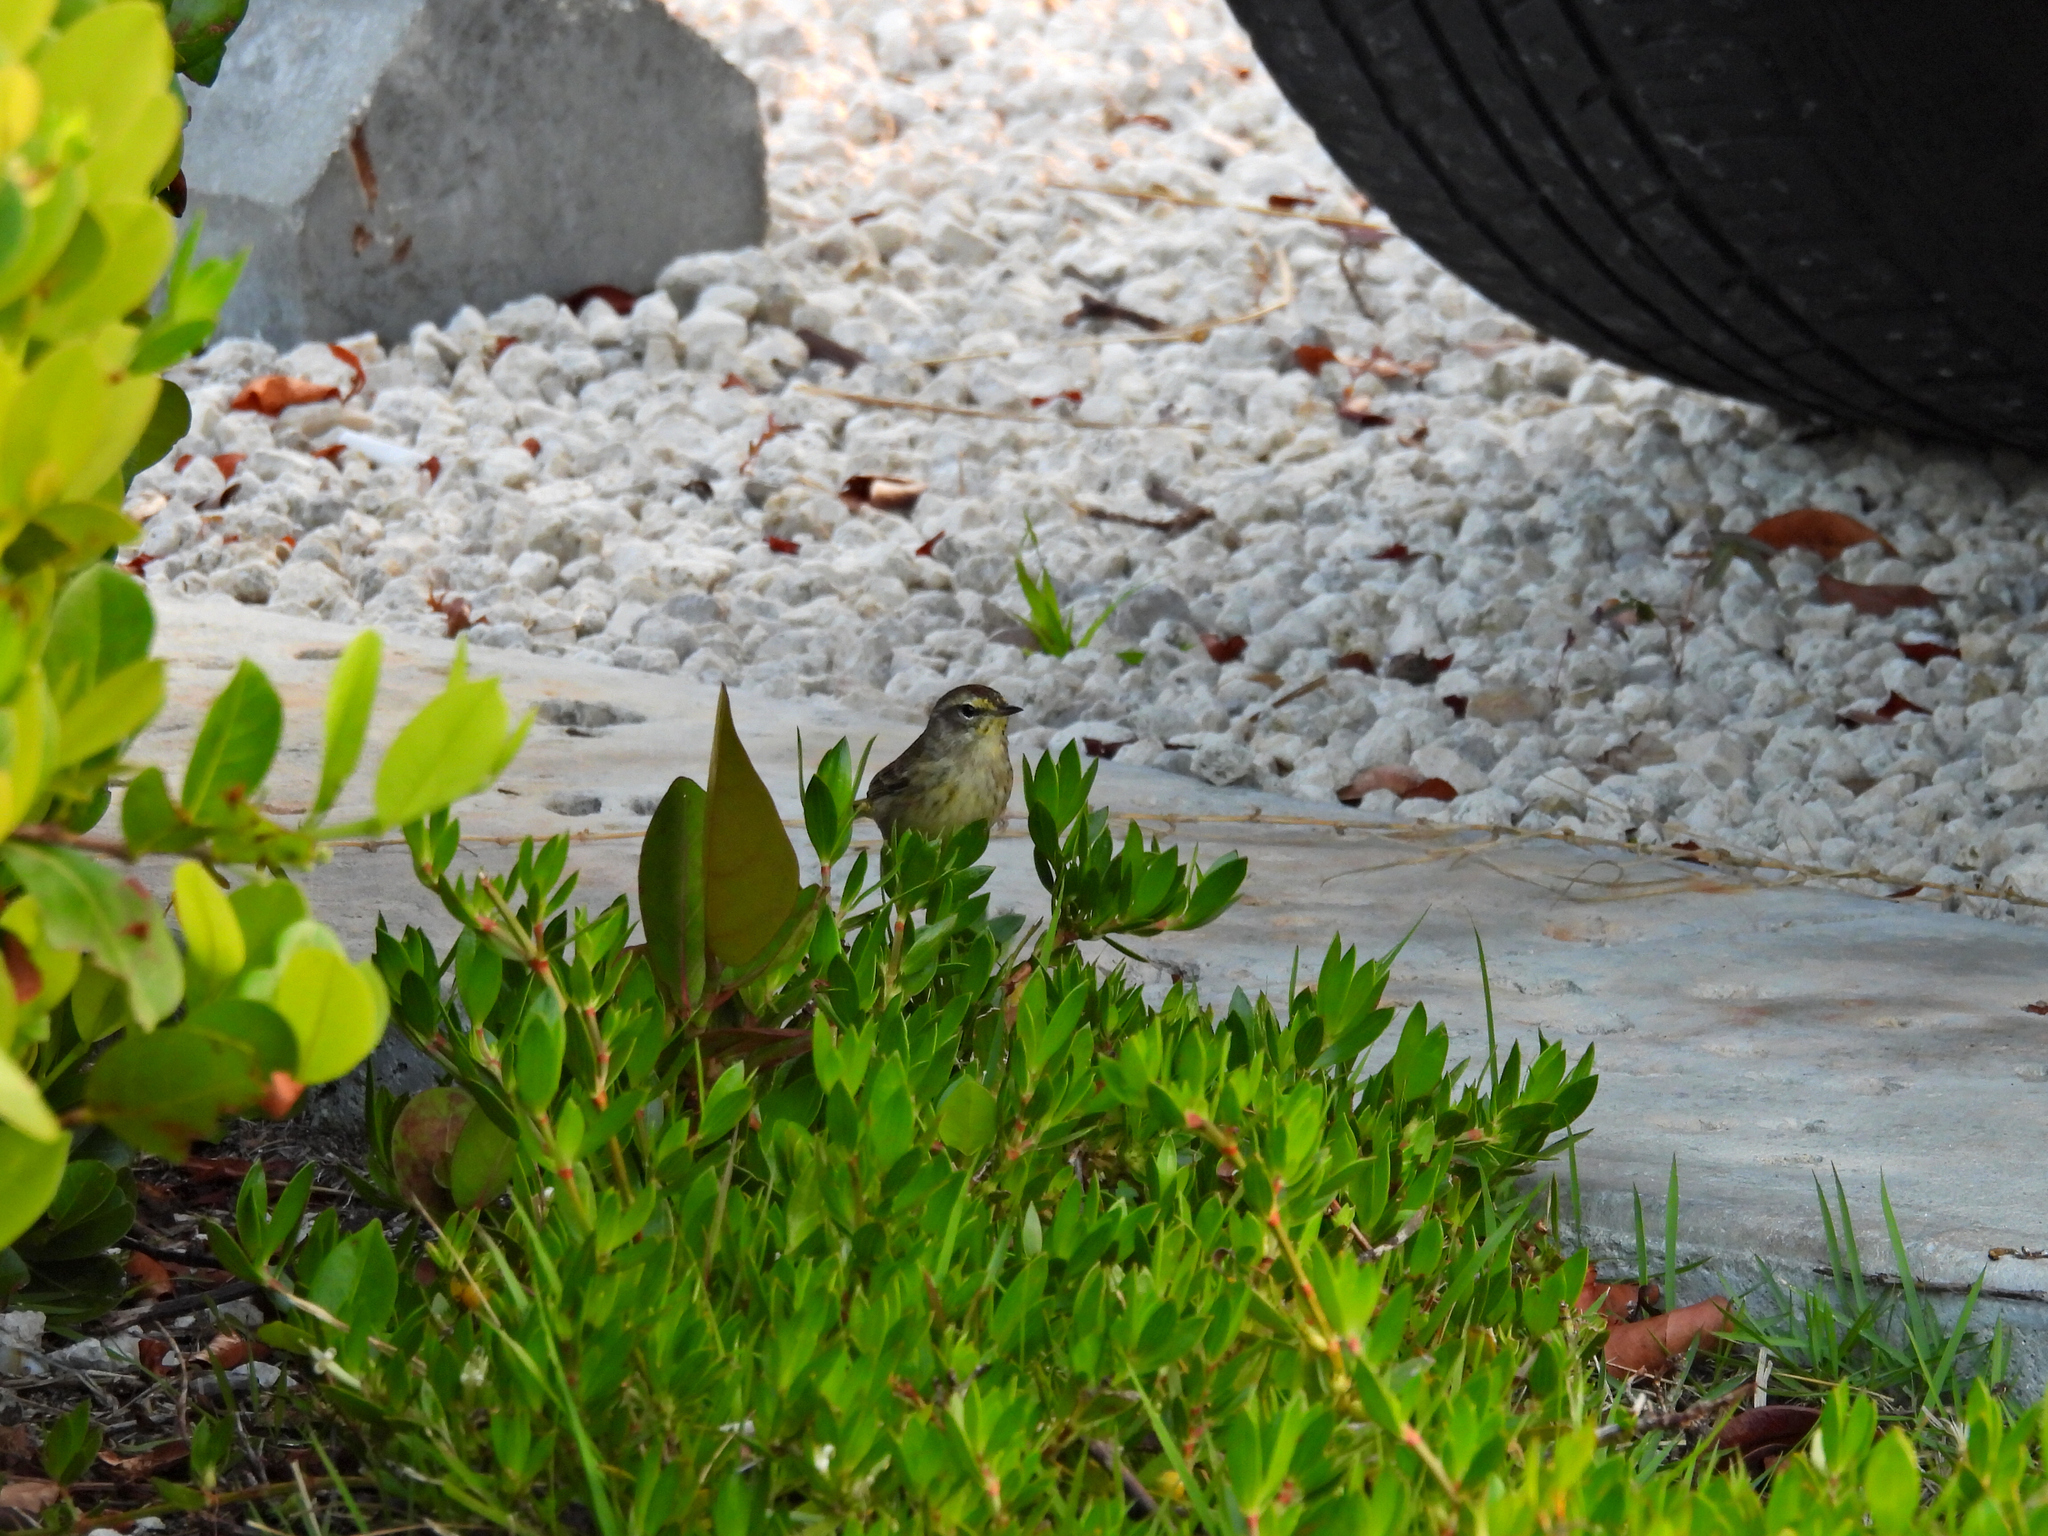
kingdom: Animalia
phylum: Chordata
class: Aves
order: Passeriformes
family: Parulidae
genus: Setophaga
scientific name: Setophaga palmarum
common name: Palm warbler
